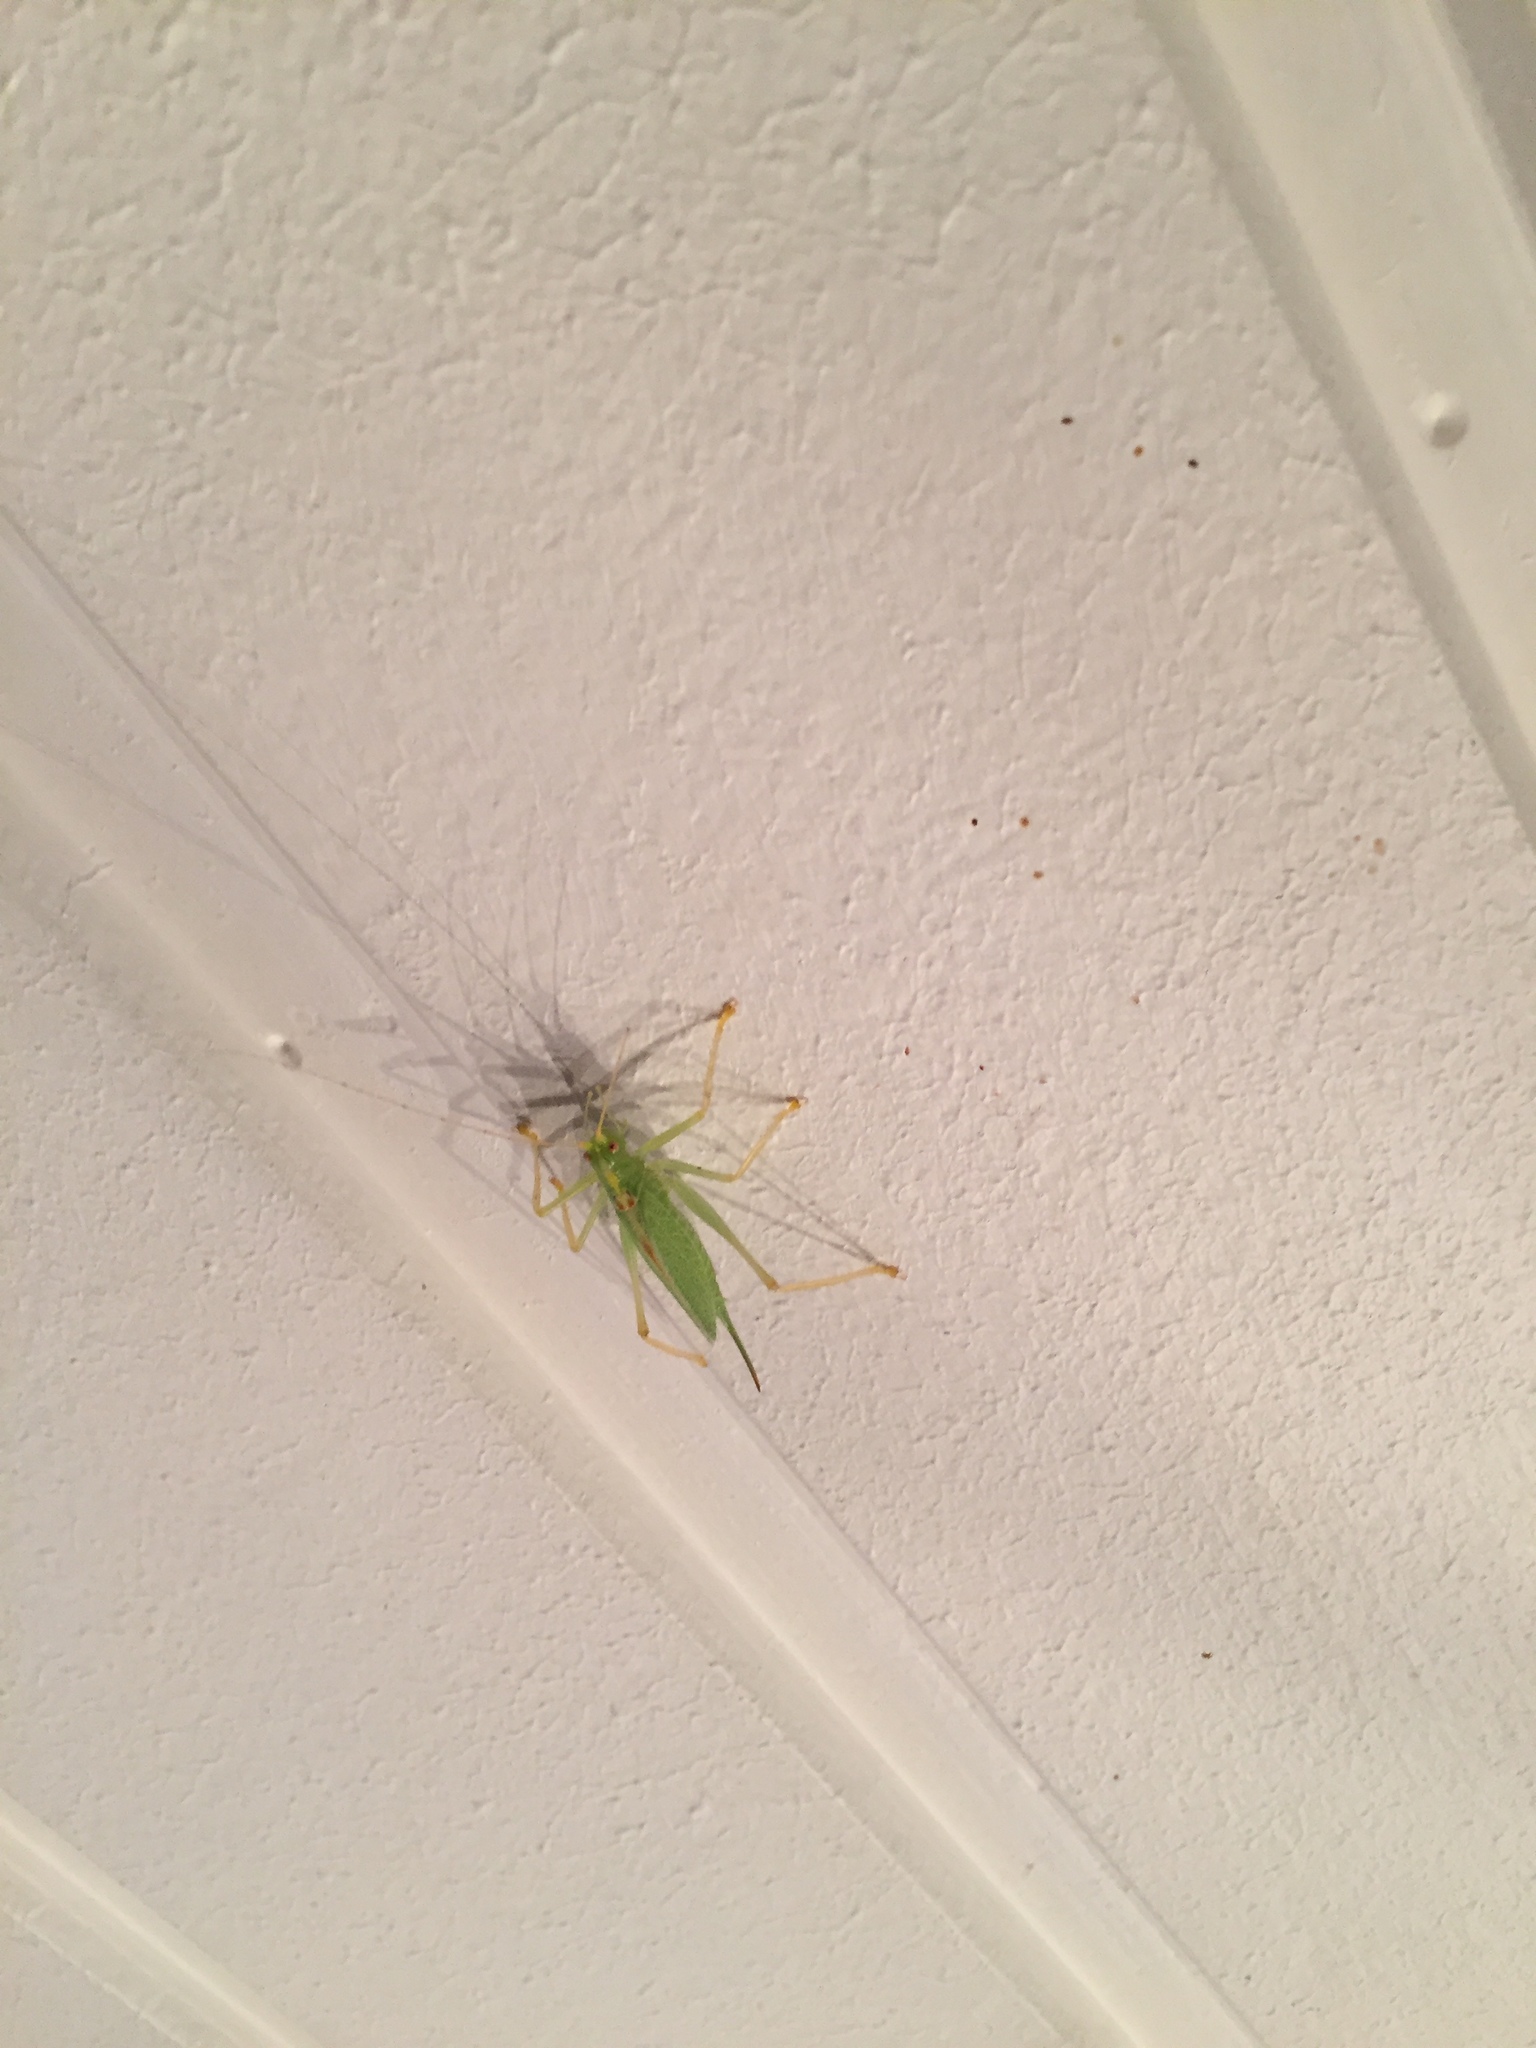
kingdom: Animalia
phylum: Arthropoda
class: Insecta
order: Orthoptera
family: Tettigoniidae
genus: Meconema
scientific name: Meconema thalassinum
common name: Oak bush-cricket
